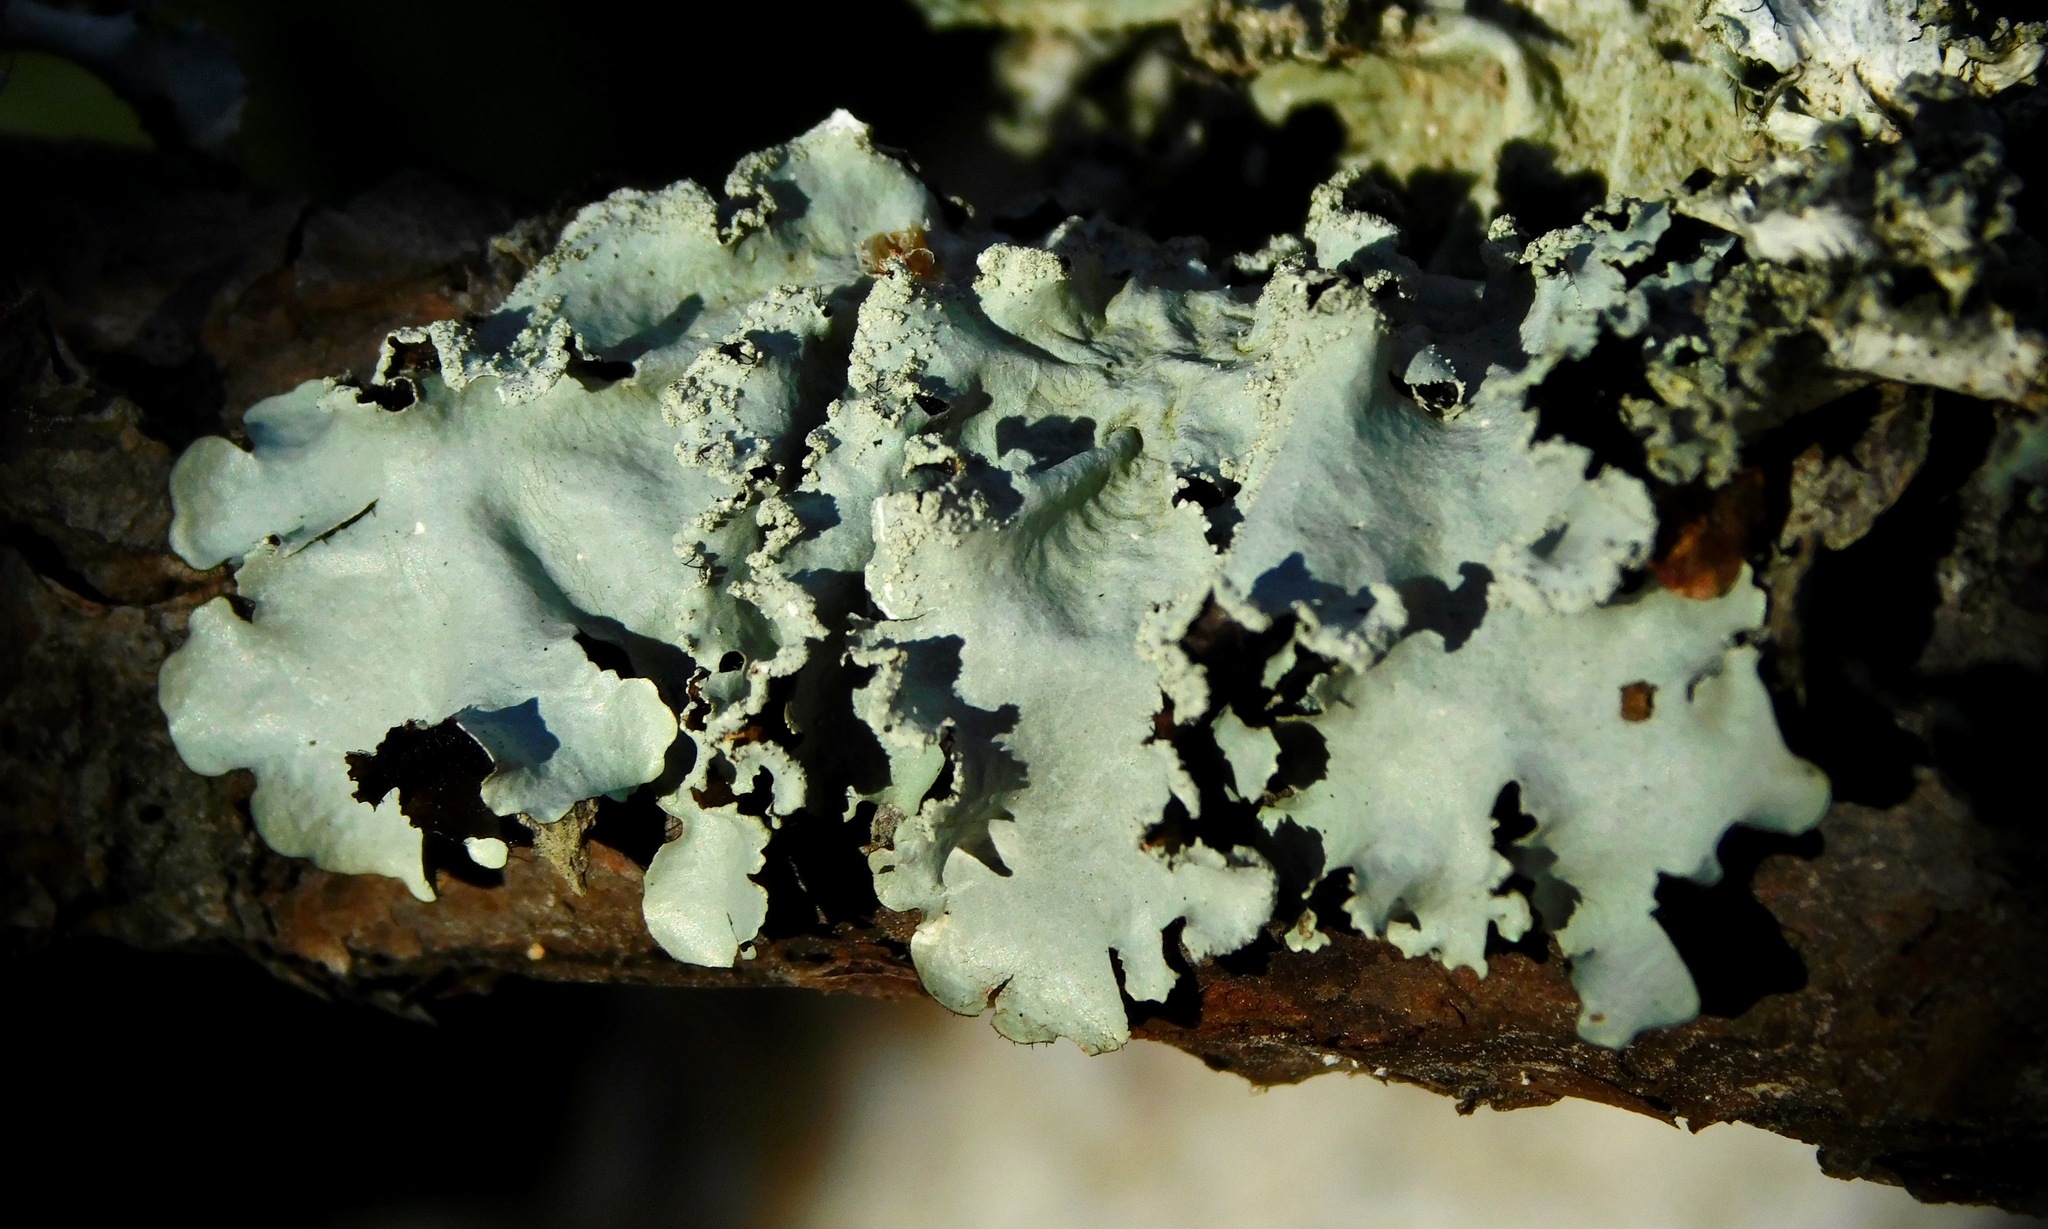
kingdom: Fungi
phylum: Ascomycota
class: Lecanoromycetes
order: Lecanorales
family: Parmeliaceae
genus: Parmotrema
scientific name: Parmotrema simulans
